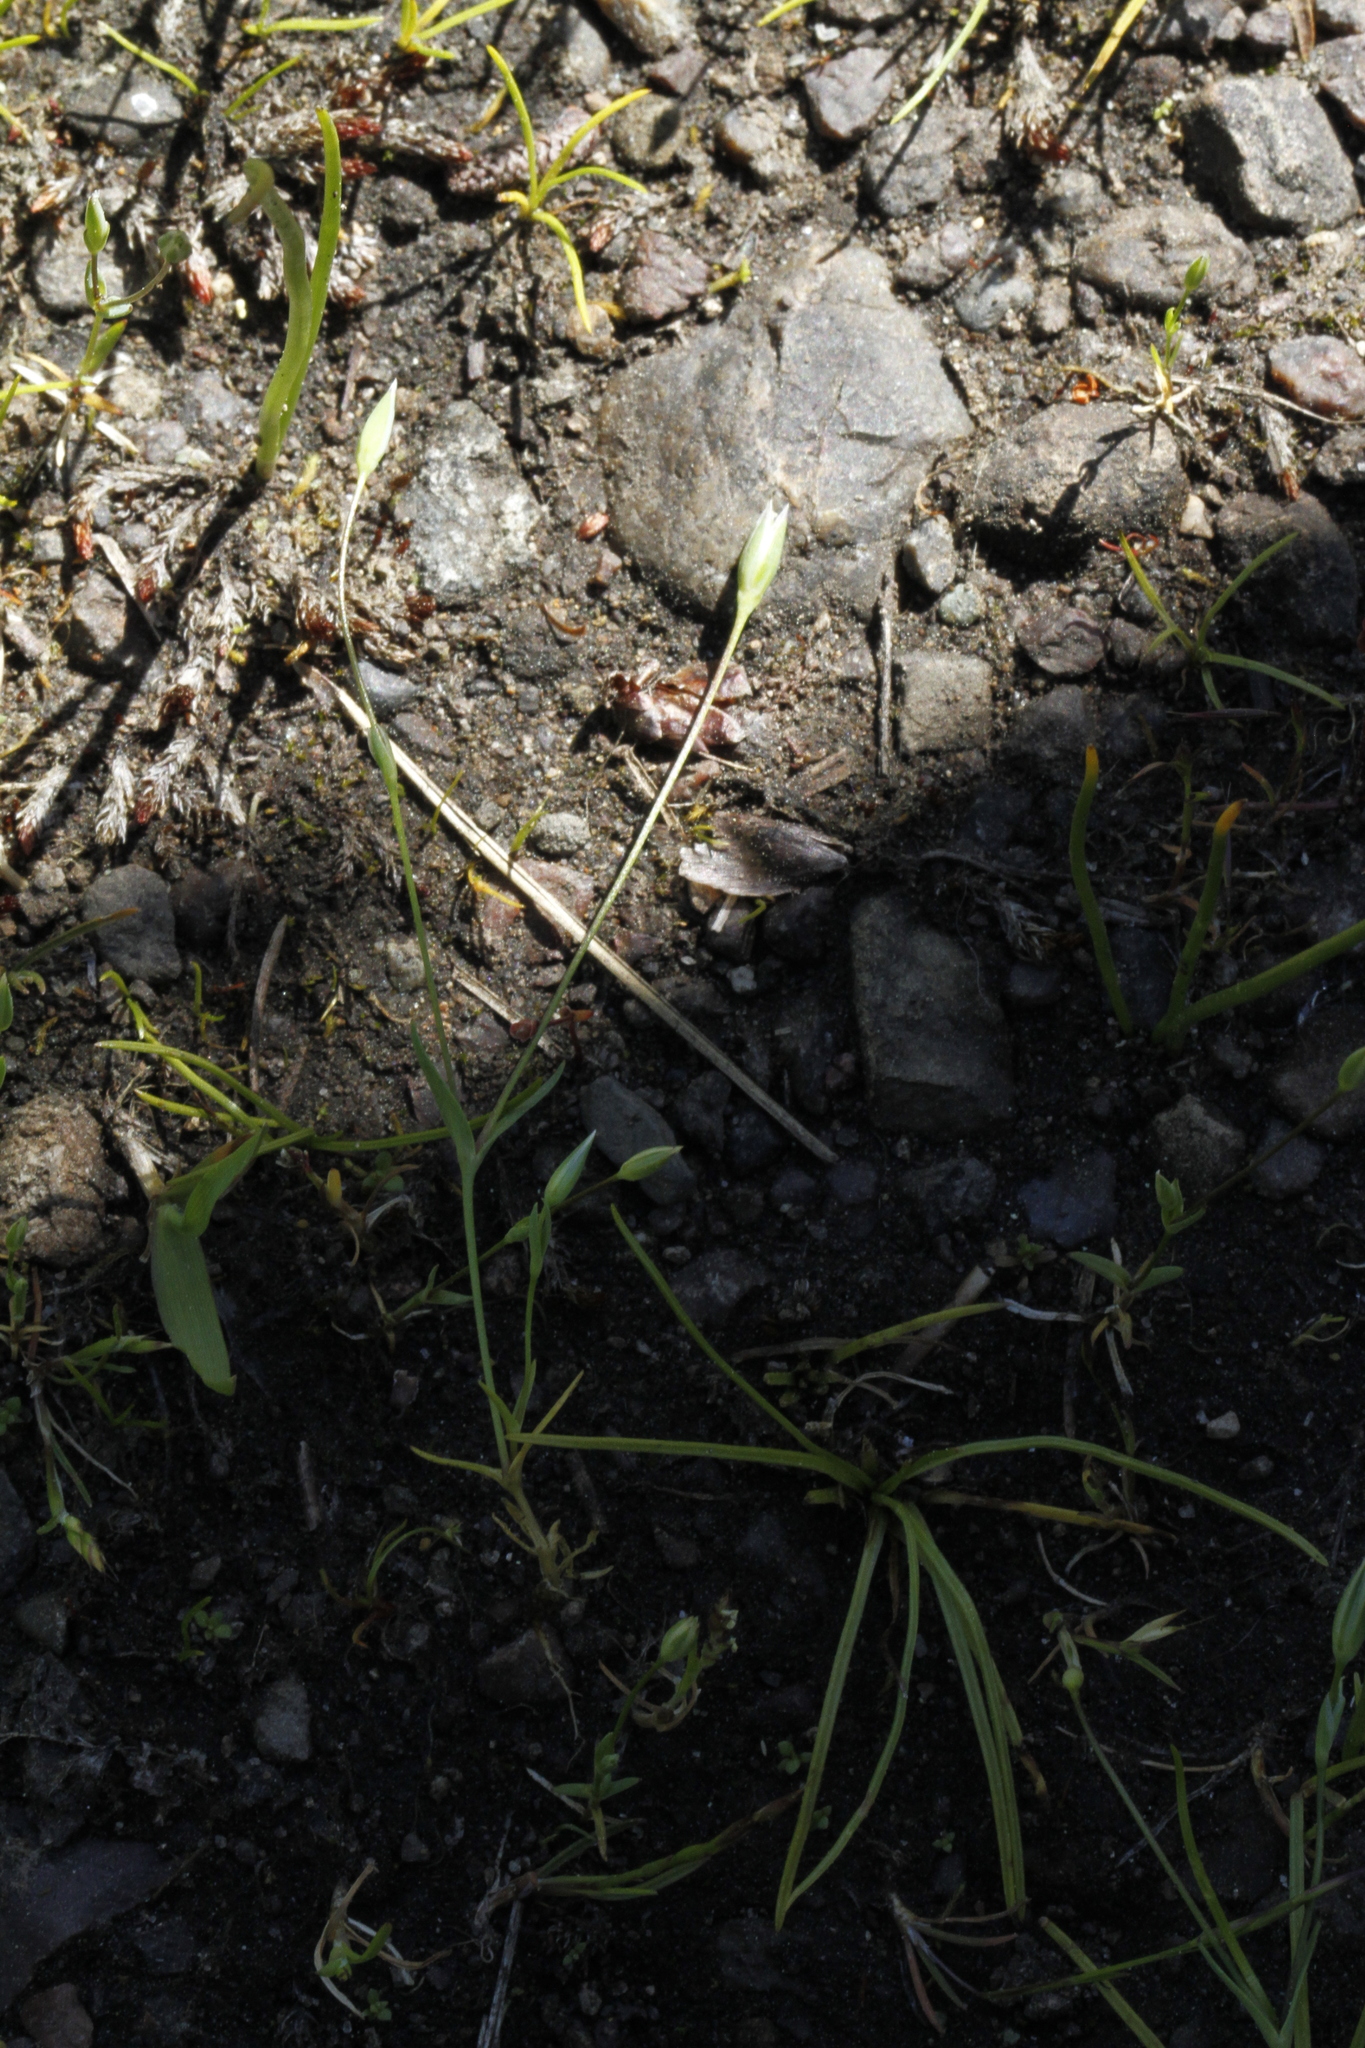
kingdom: Plantae
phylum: Tracheophyta
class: Magnoliopsida
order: Caryophyllales
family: Caryophyllaceae
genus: Moenchia
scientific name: Moenchia erecta
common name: Upright chickweed
